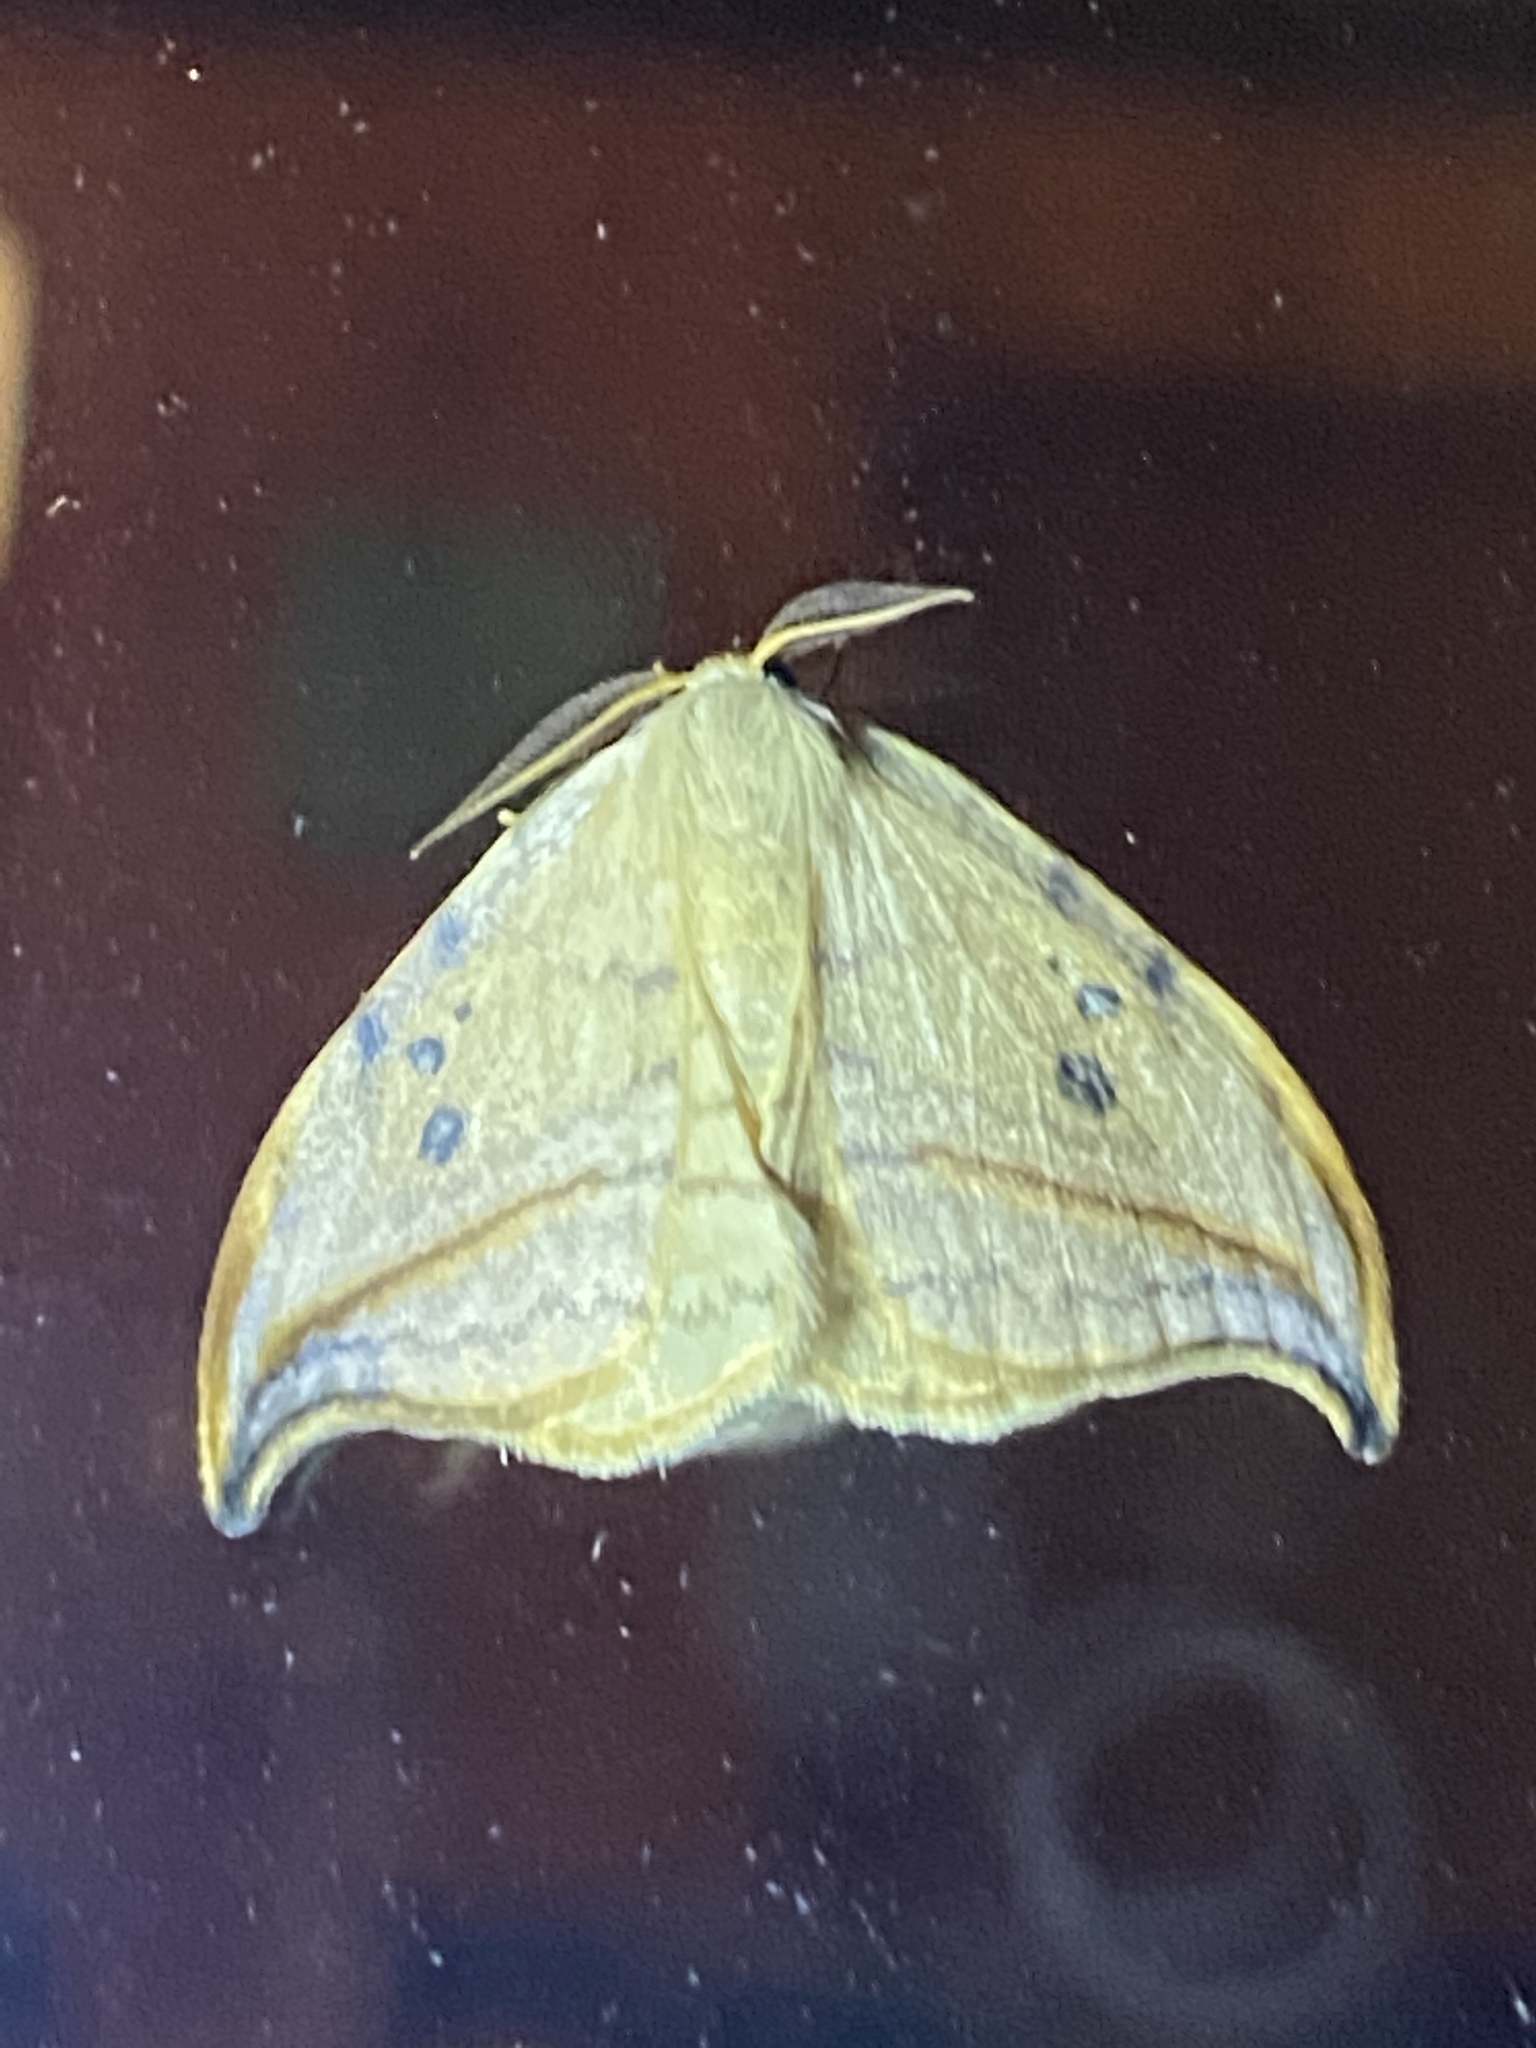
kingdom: Animalia
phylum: Arthropoda
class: Insecta
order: Lepidoptera
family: Drepanidae
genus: Drepana
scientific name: Drepana arcuata
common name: Arched hooktip moth
